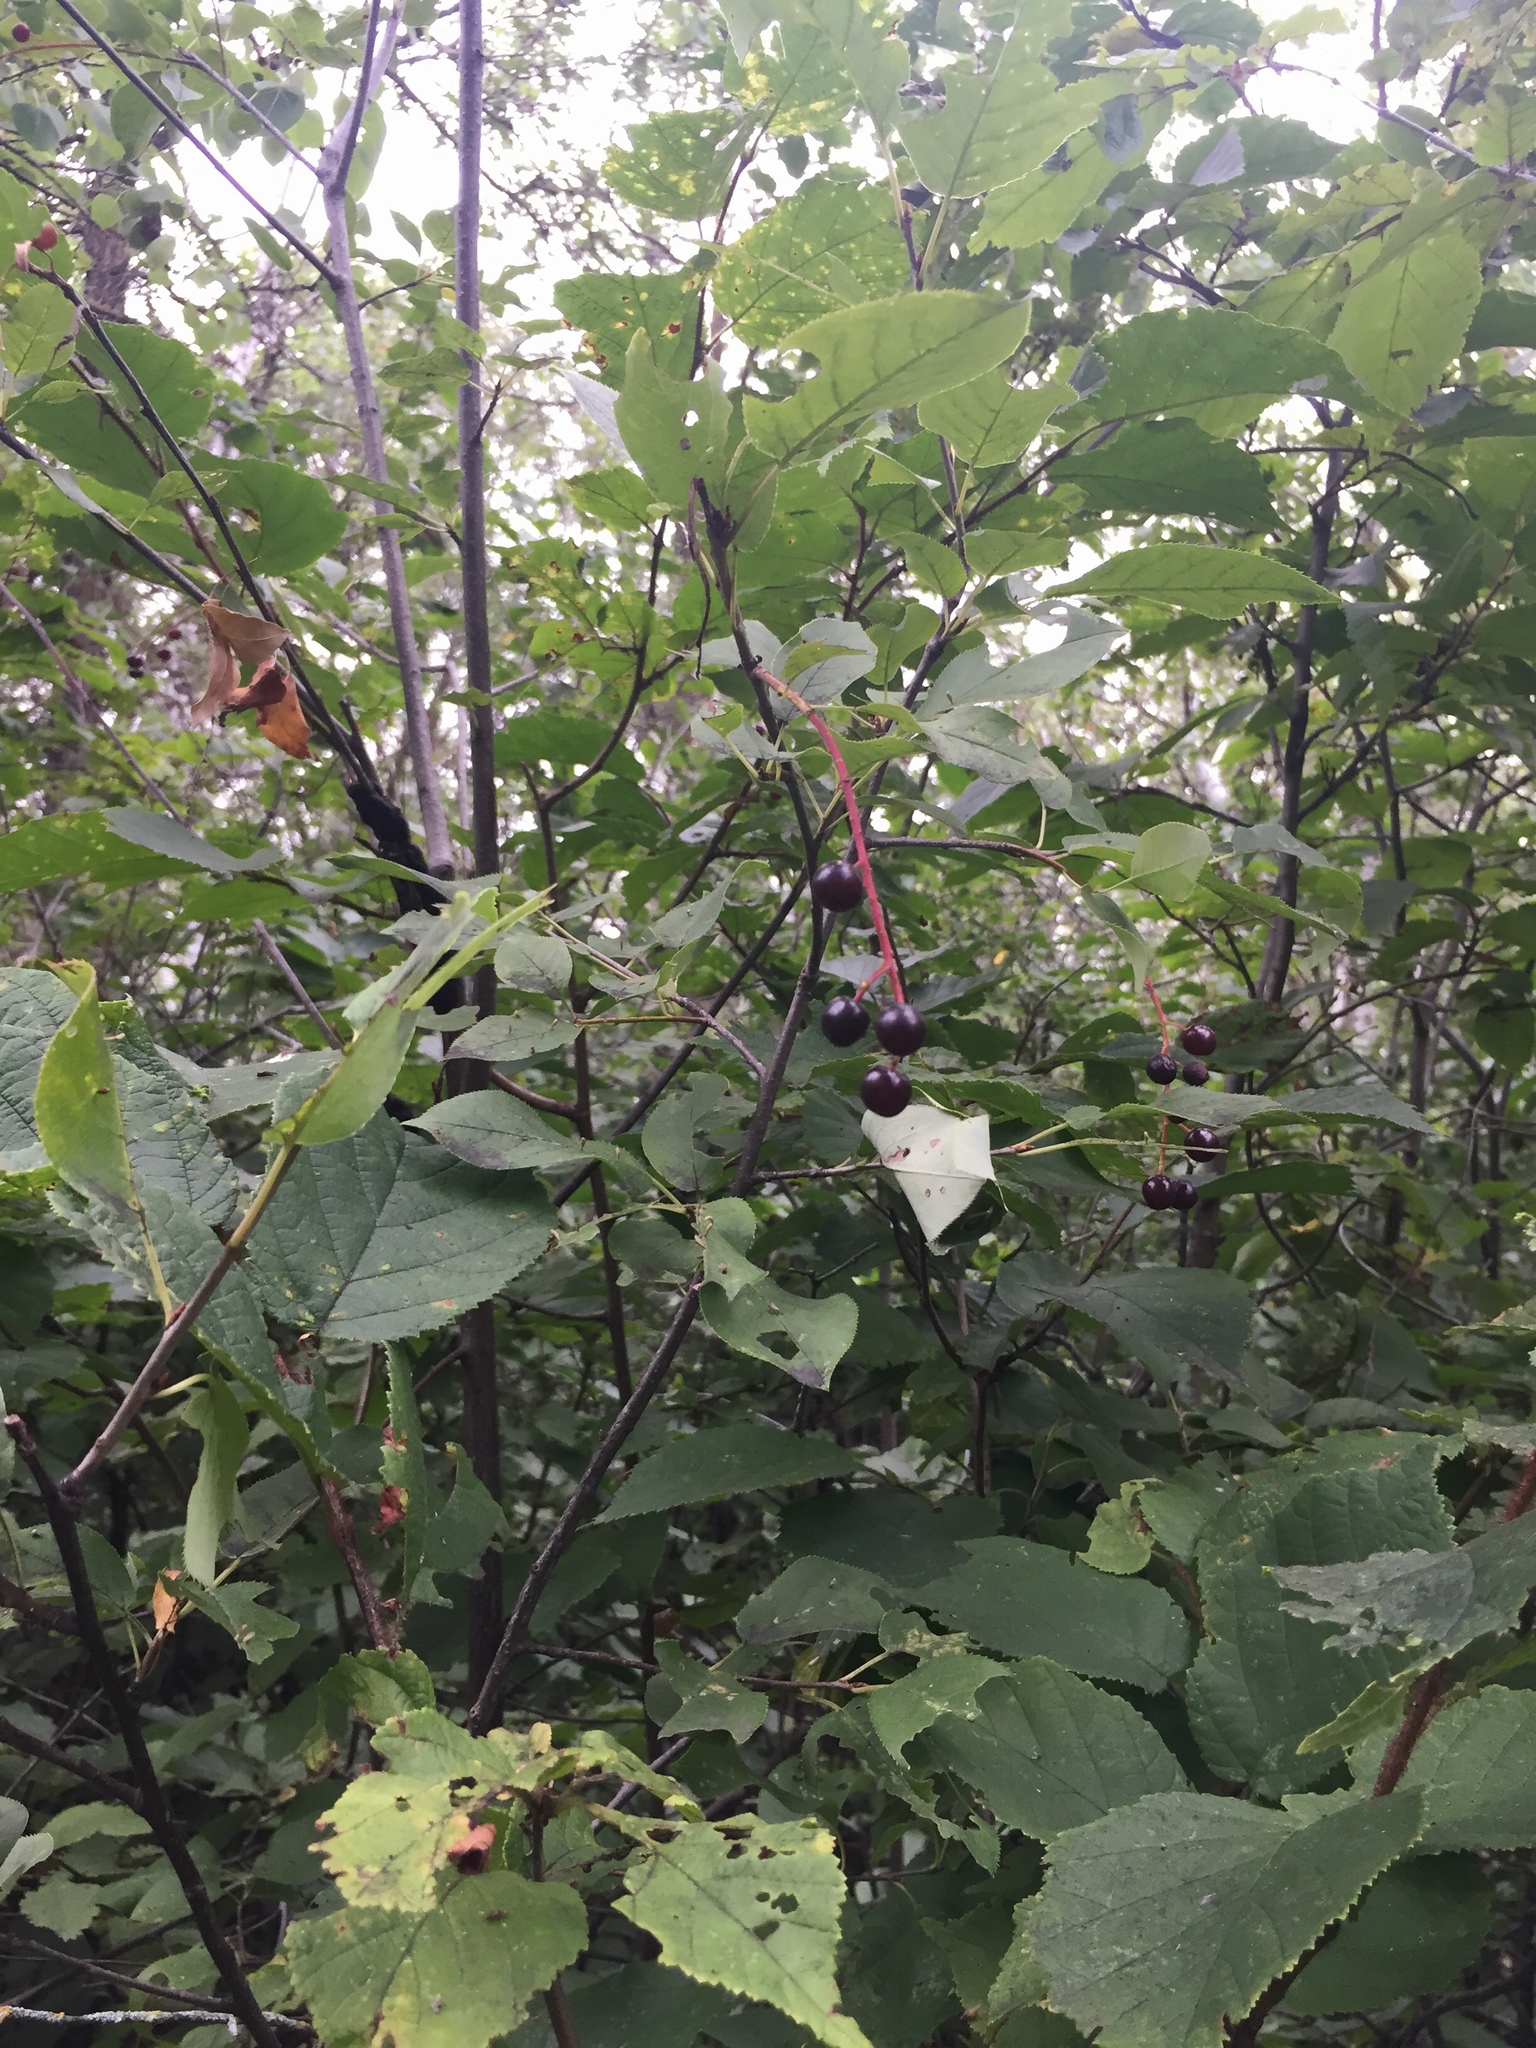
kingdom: Plantae
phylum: Tracheophyta
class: Magnoliopsida
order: Rosales
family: Rosaceae
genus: Prunus
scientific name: Prunus virginiana
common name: Chokecherry
